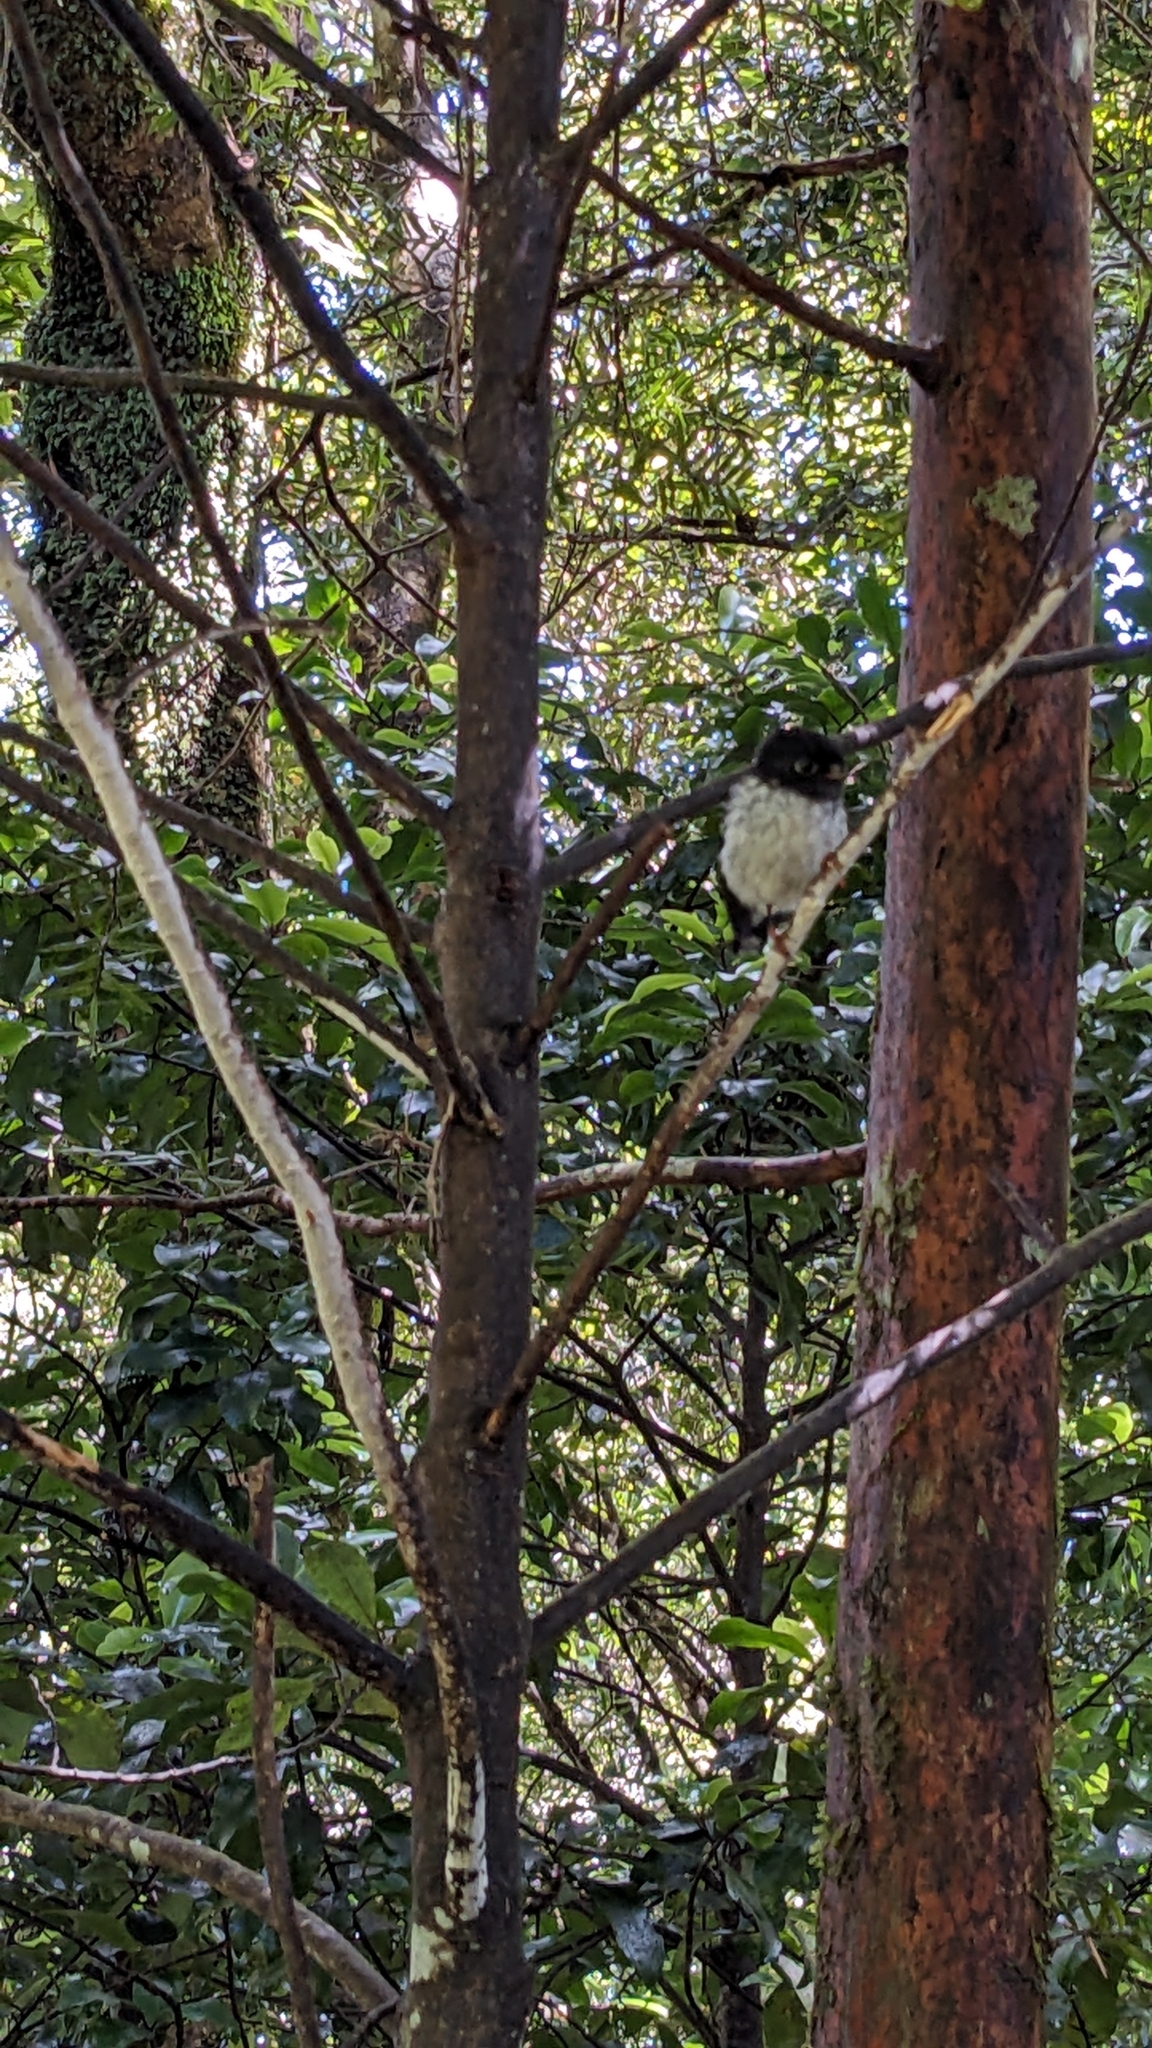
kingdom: Animalia
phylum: Chordata
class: Aves
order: Passeriformes
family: Petroicidae
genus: Petroica
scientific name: Petroica macrocephala
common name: Tomtit
